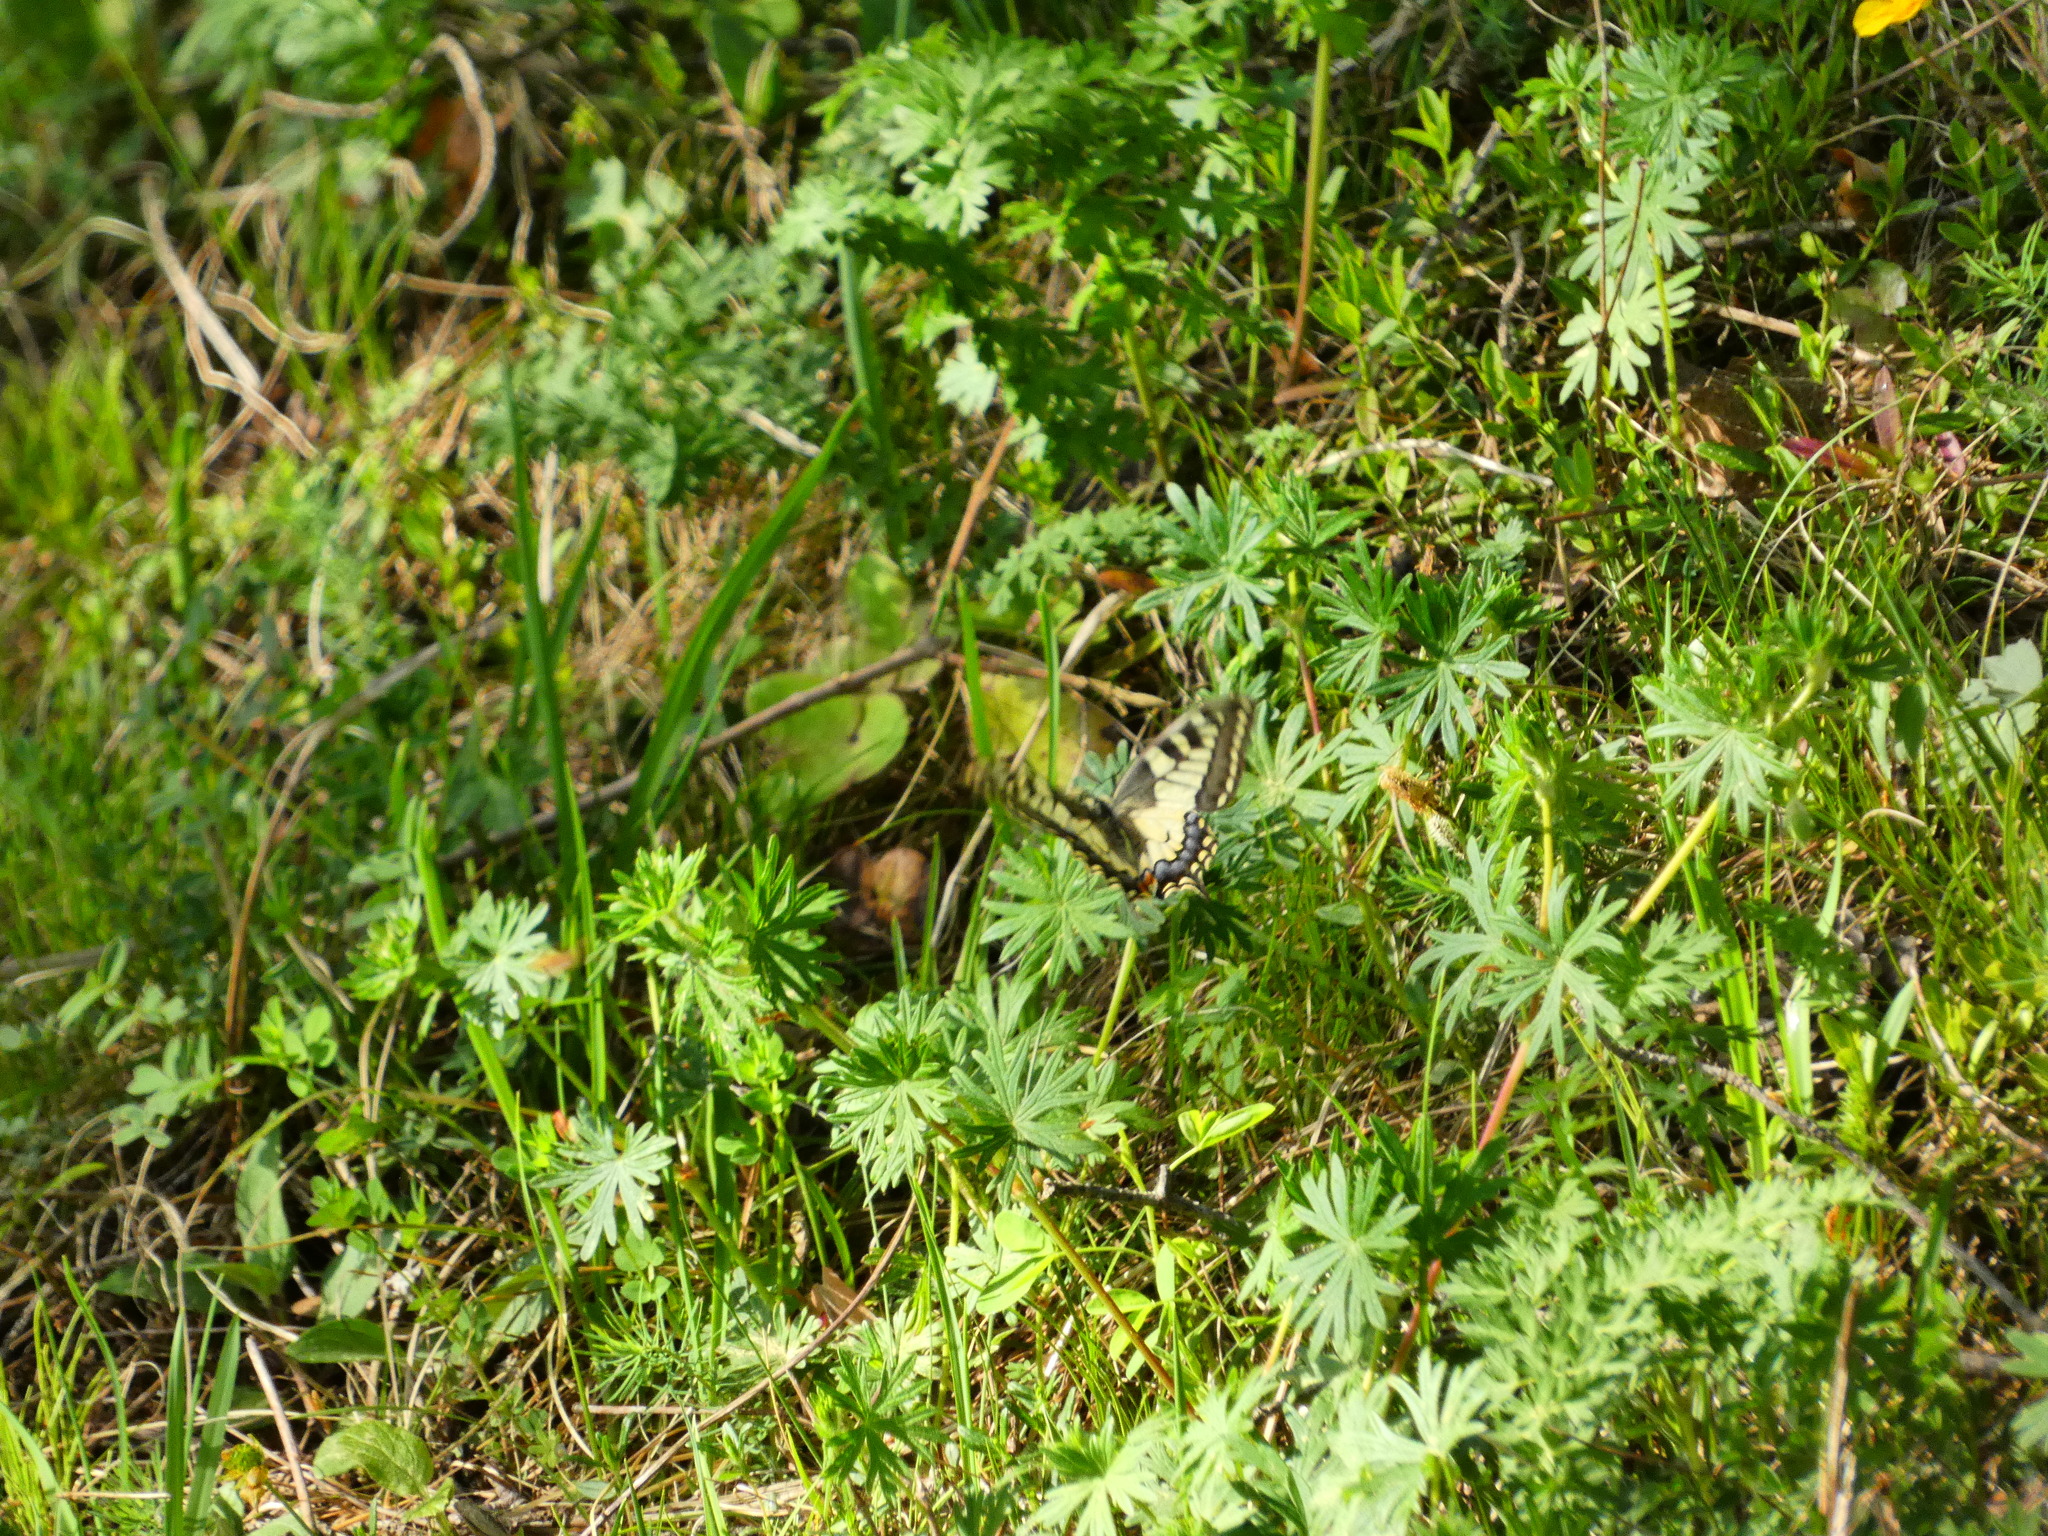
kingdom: Animalia
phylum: Arthropoda
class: Insecta
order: Lepidoptera
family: Papilionidae
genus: Papilio
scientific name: Papilio machaon
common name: Swallowtail
